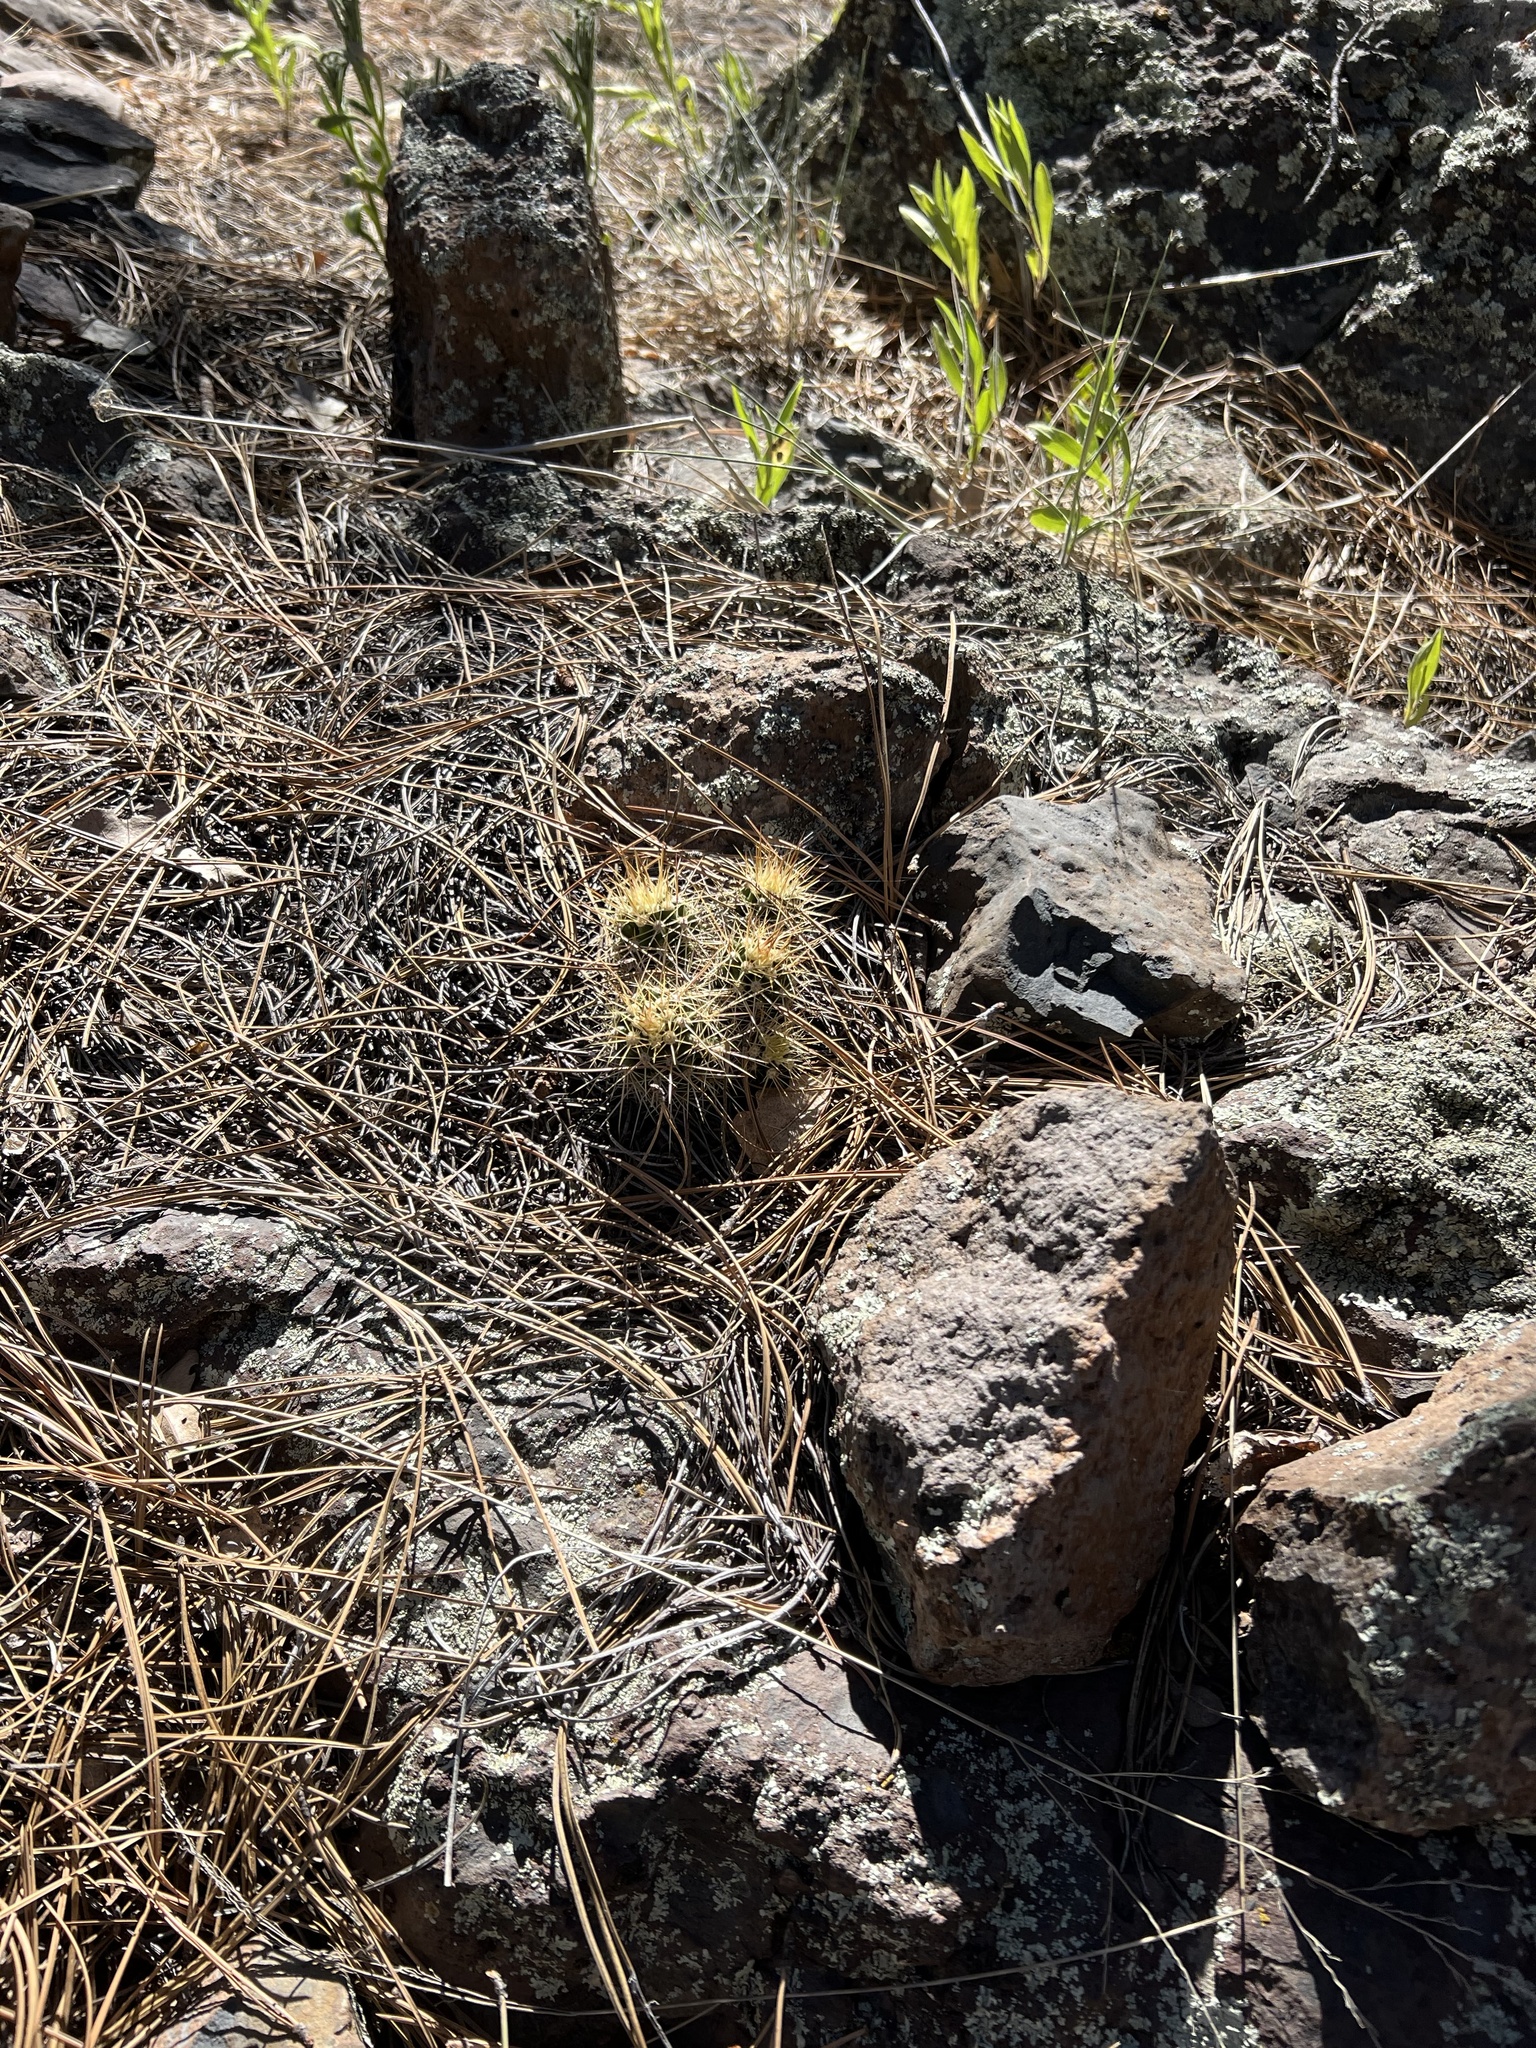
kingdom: Plantae
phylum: Tracheophyta
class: Magnoliopsida
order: Caryophyllales
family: Cactaceae
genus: Echinocereus
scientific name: Echinocereus bakeri
